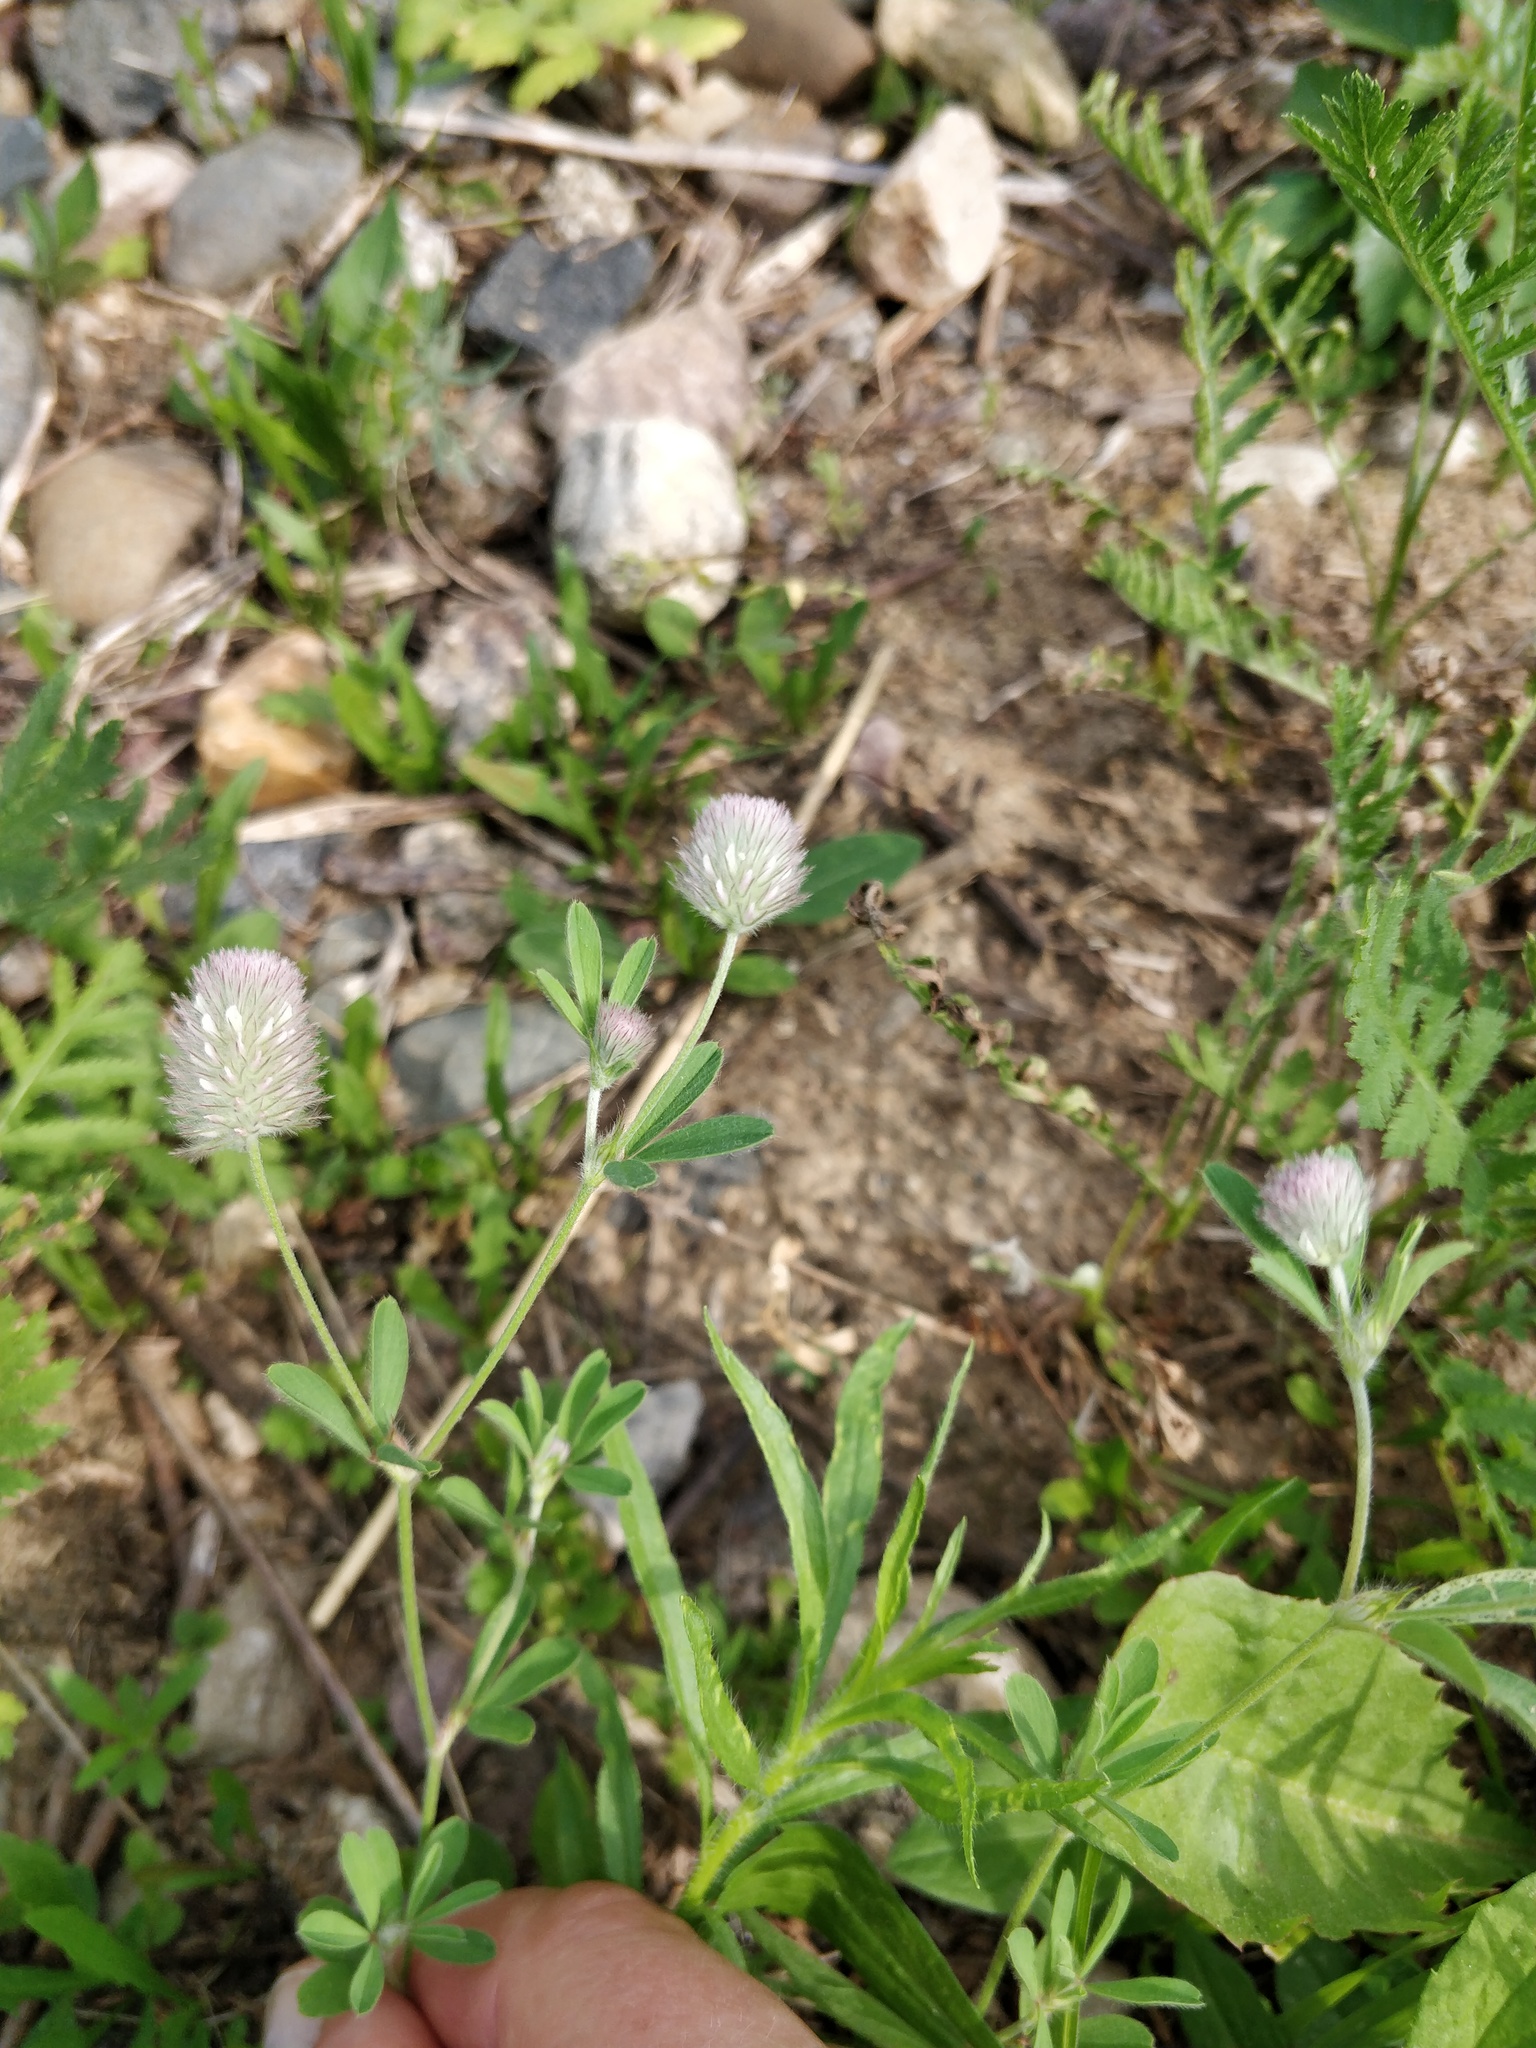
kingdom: Plantae
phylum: Tracheophyta
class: Magnoliopsida
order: Fabales
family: Fabaceae
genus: Trifolium
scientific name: Trifolium arvense
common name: Hare's-foot clover
